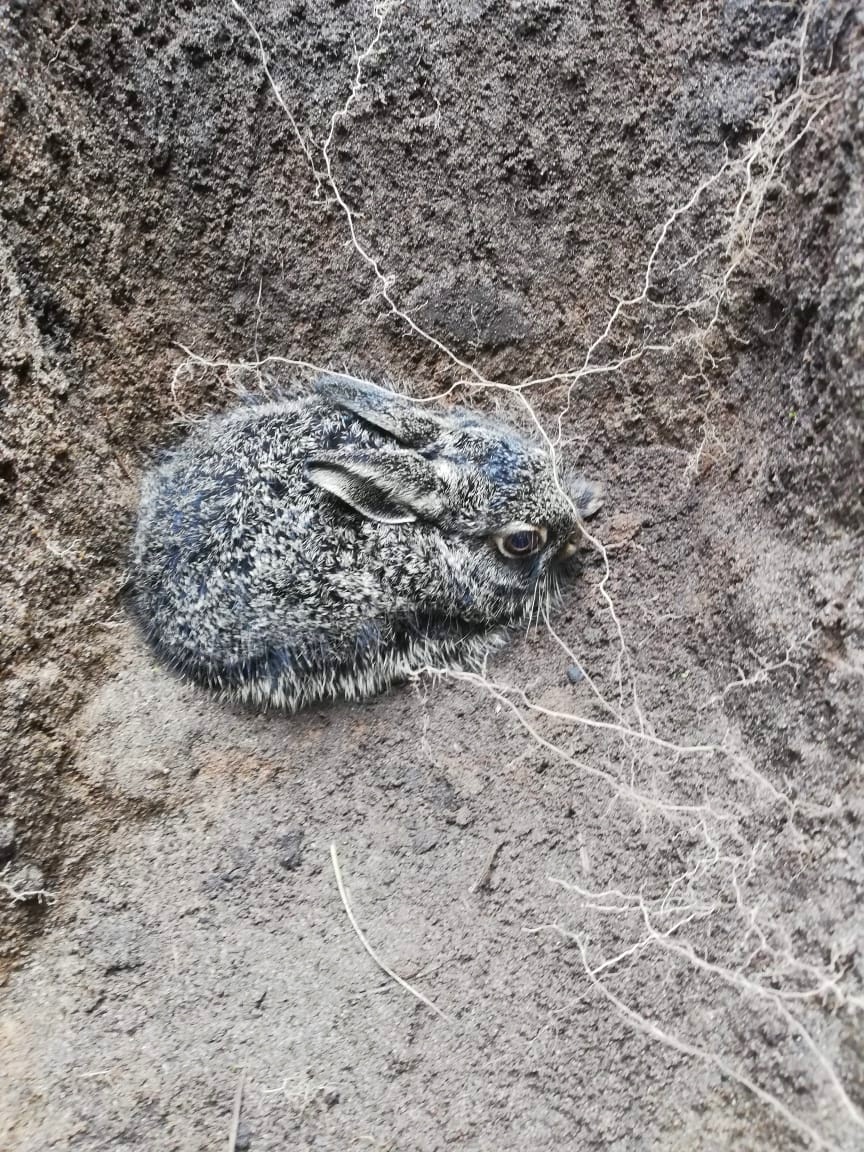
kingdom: Animalia
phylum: Chordata
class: Mammalia
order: Lagomorpha
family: Leporidae
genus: Lepus
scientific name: Lepus europaeus
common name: European hare
